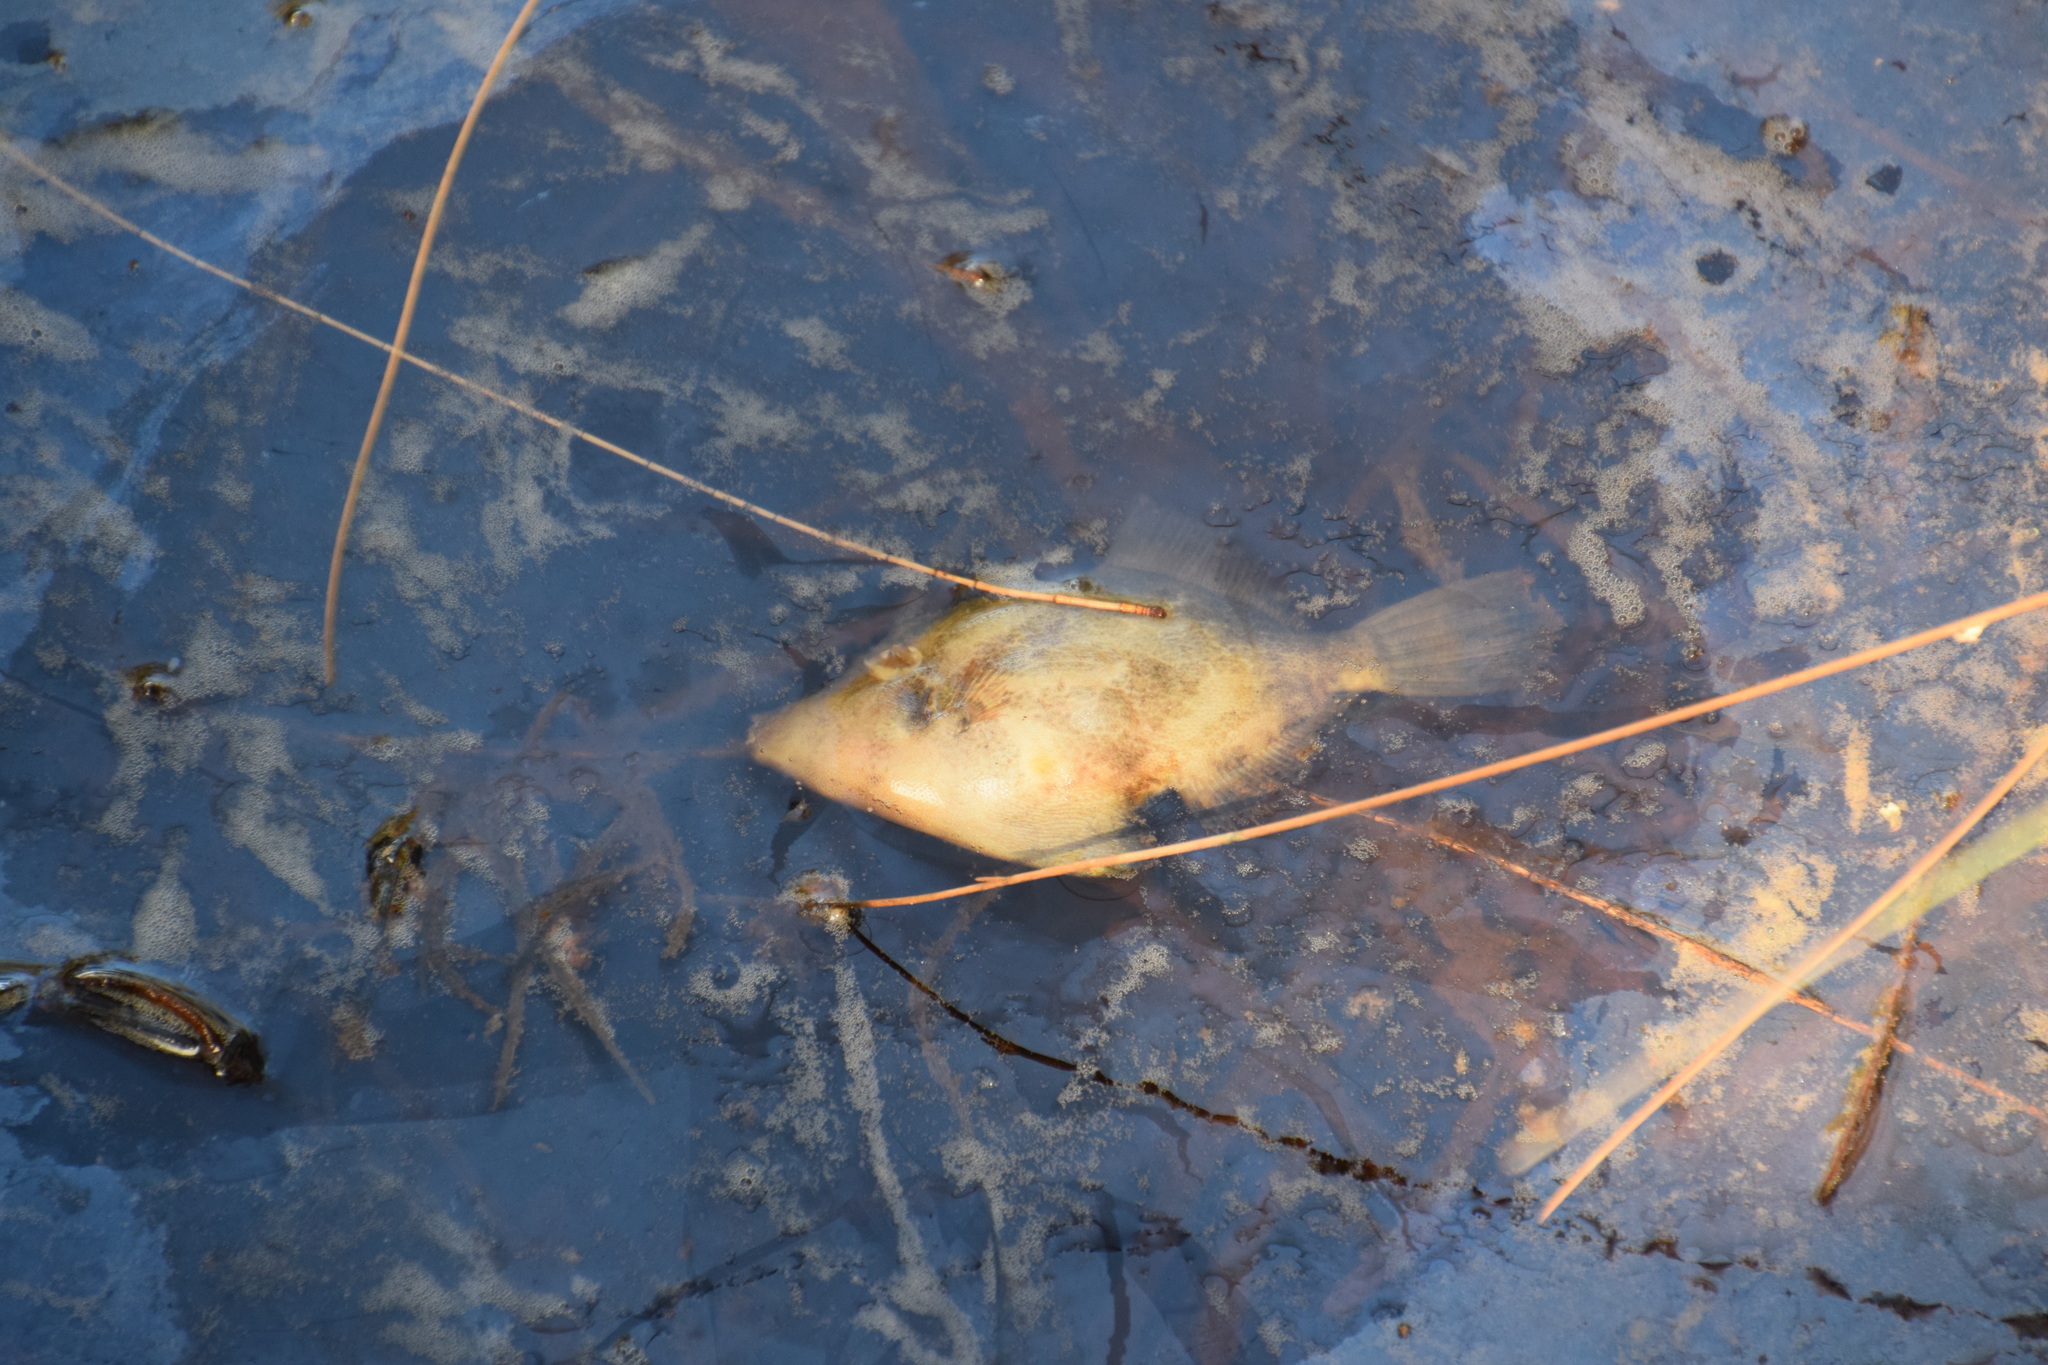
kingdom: Animalia
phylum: Chordata
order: Tetraodontiformes
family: Monacanthidae
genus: Monacanthus
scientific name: Monacanthus chinensis
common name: Centreboard leatherjacket
